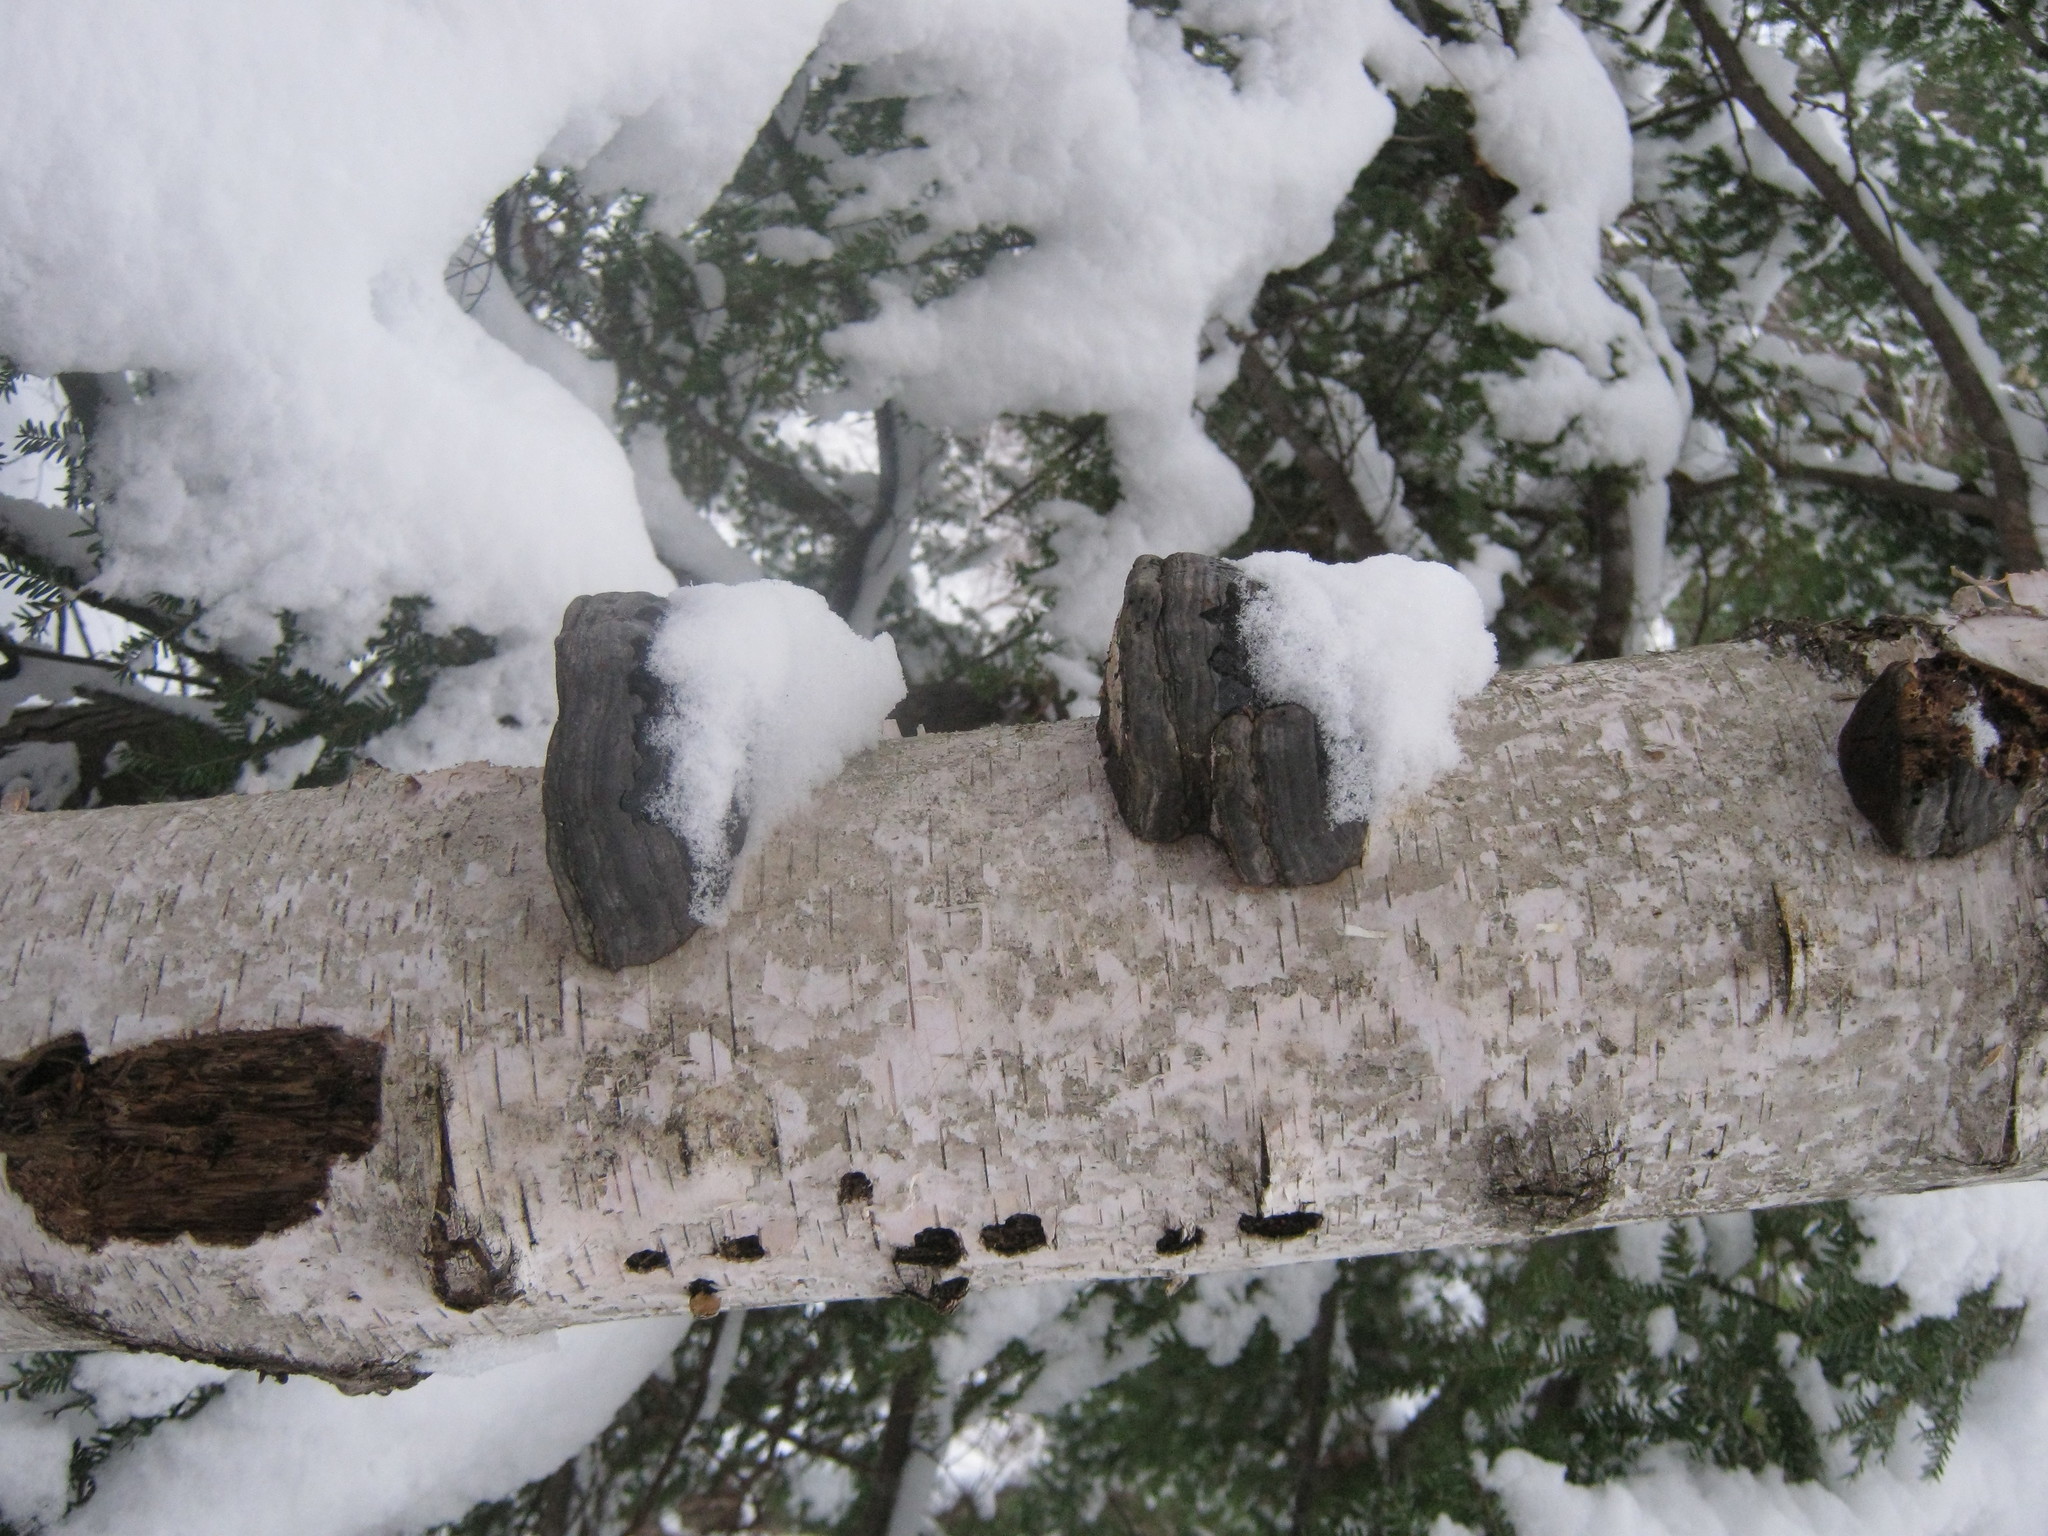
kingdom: Fungi
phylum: Basidiomycota
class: Agaricomycetes
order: Polyporales
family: Polyporaceae
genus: Fomes
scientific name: Fomes fomentarius
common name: Hoof fungus
